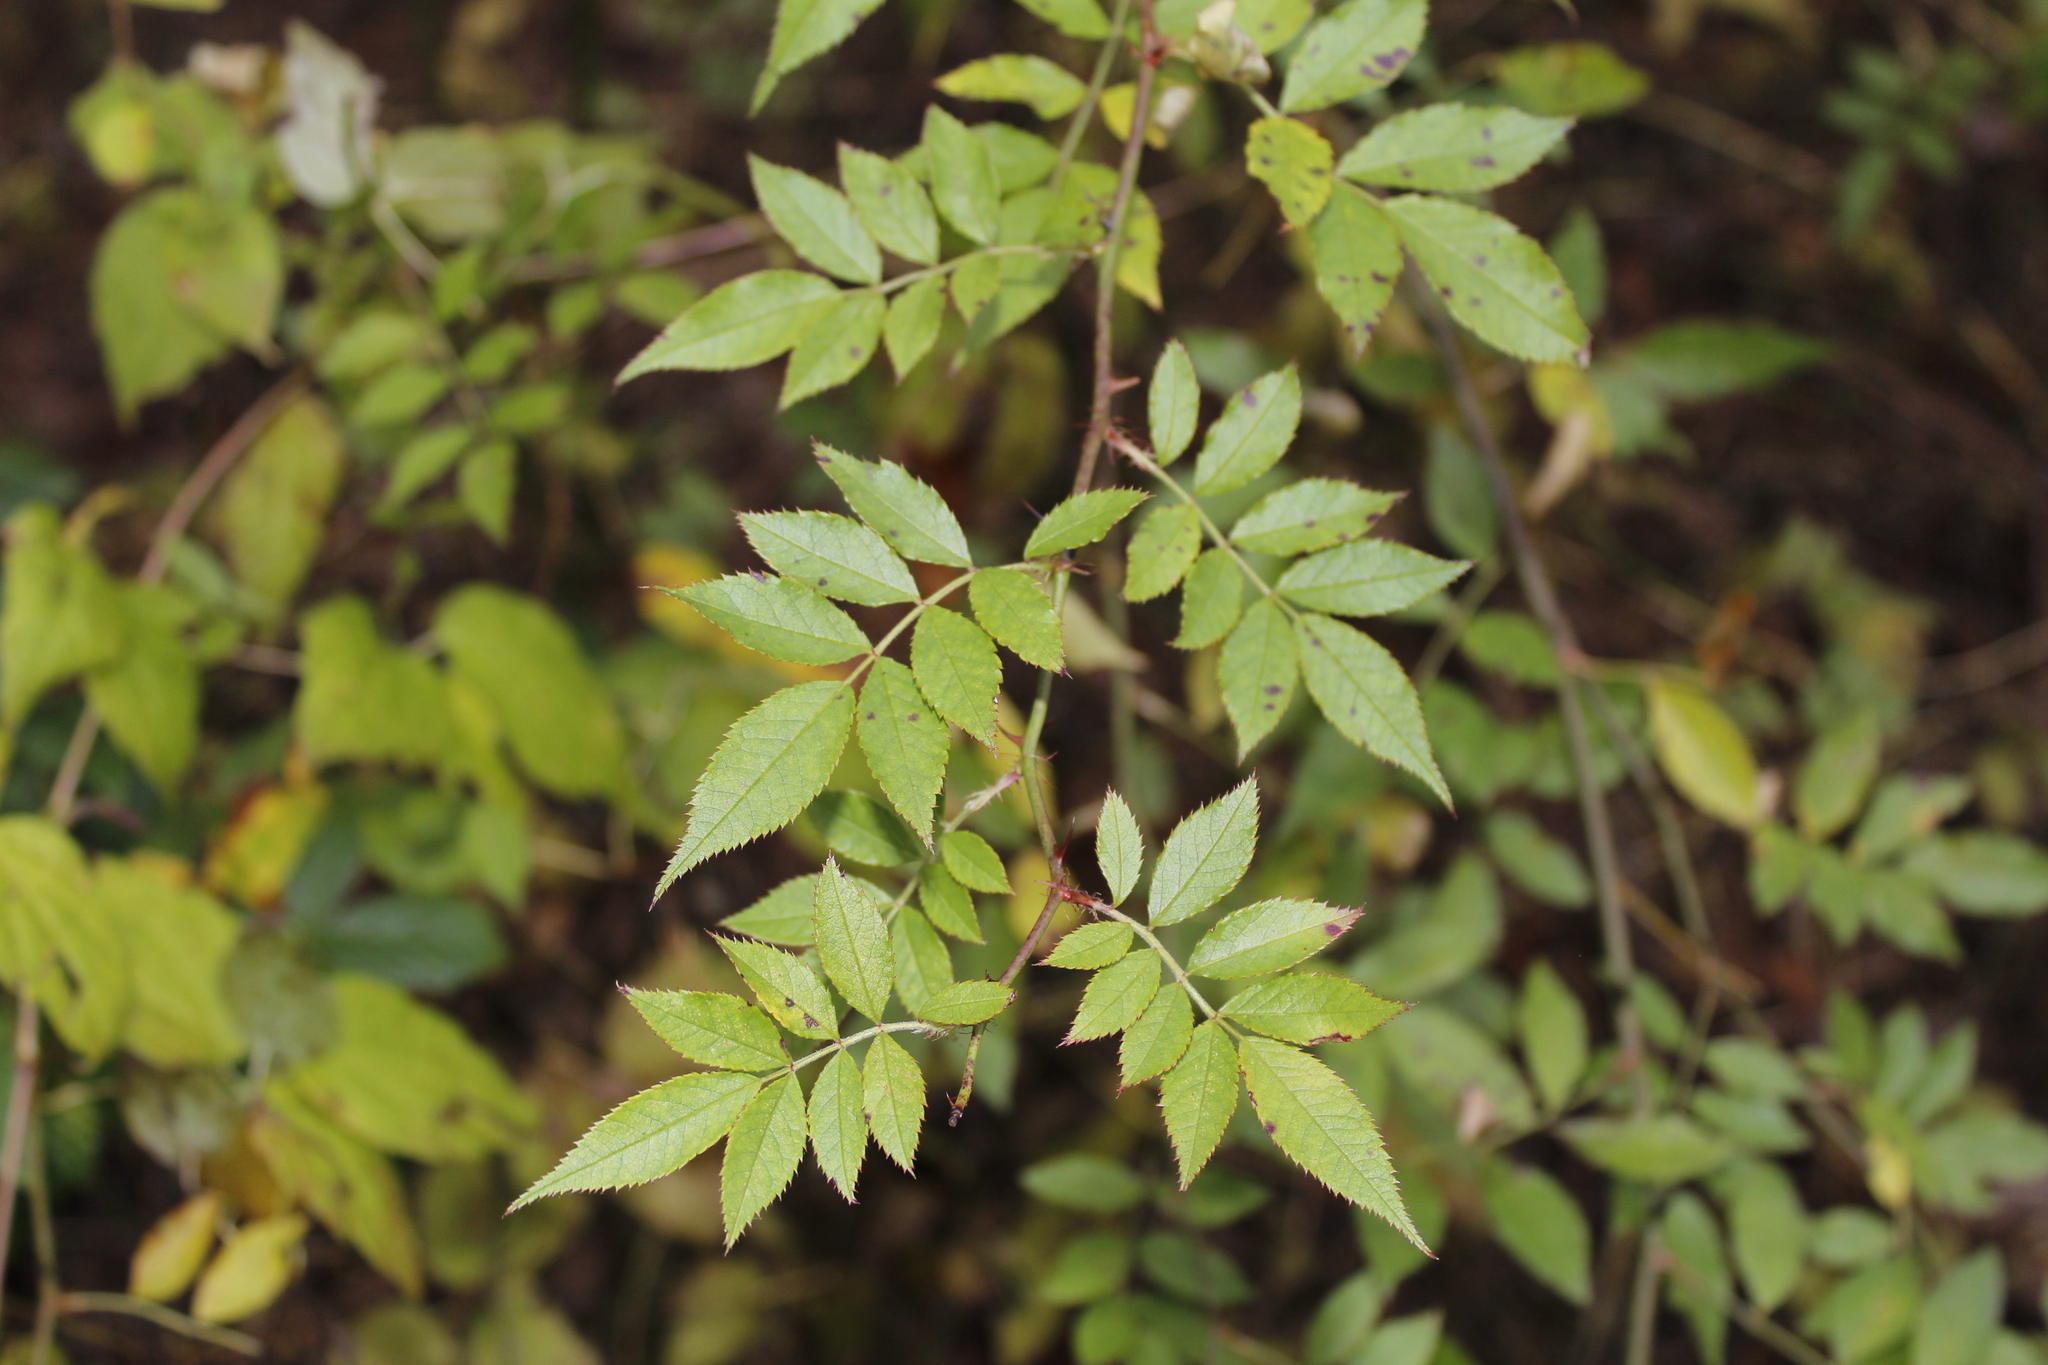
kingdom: Plantae
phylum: Tracheophyta
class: Magnoliopsida
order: Rosales
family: Rosaceae
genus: Rosa
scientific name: Rosa multiflora
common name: Multiflora rose
